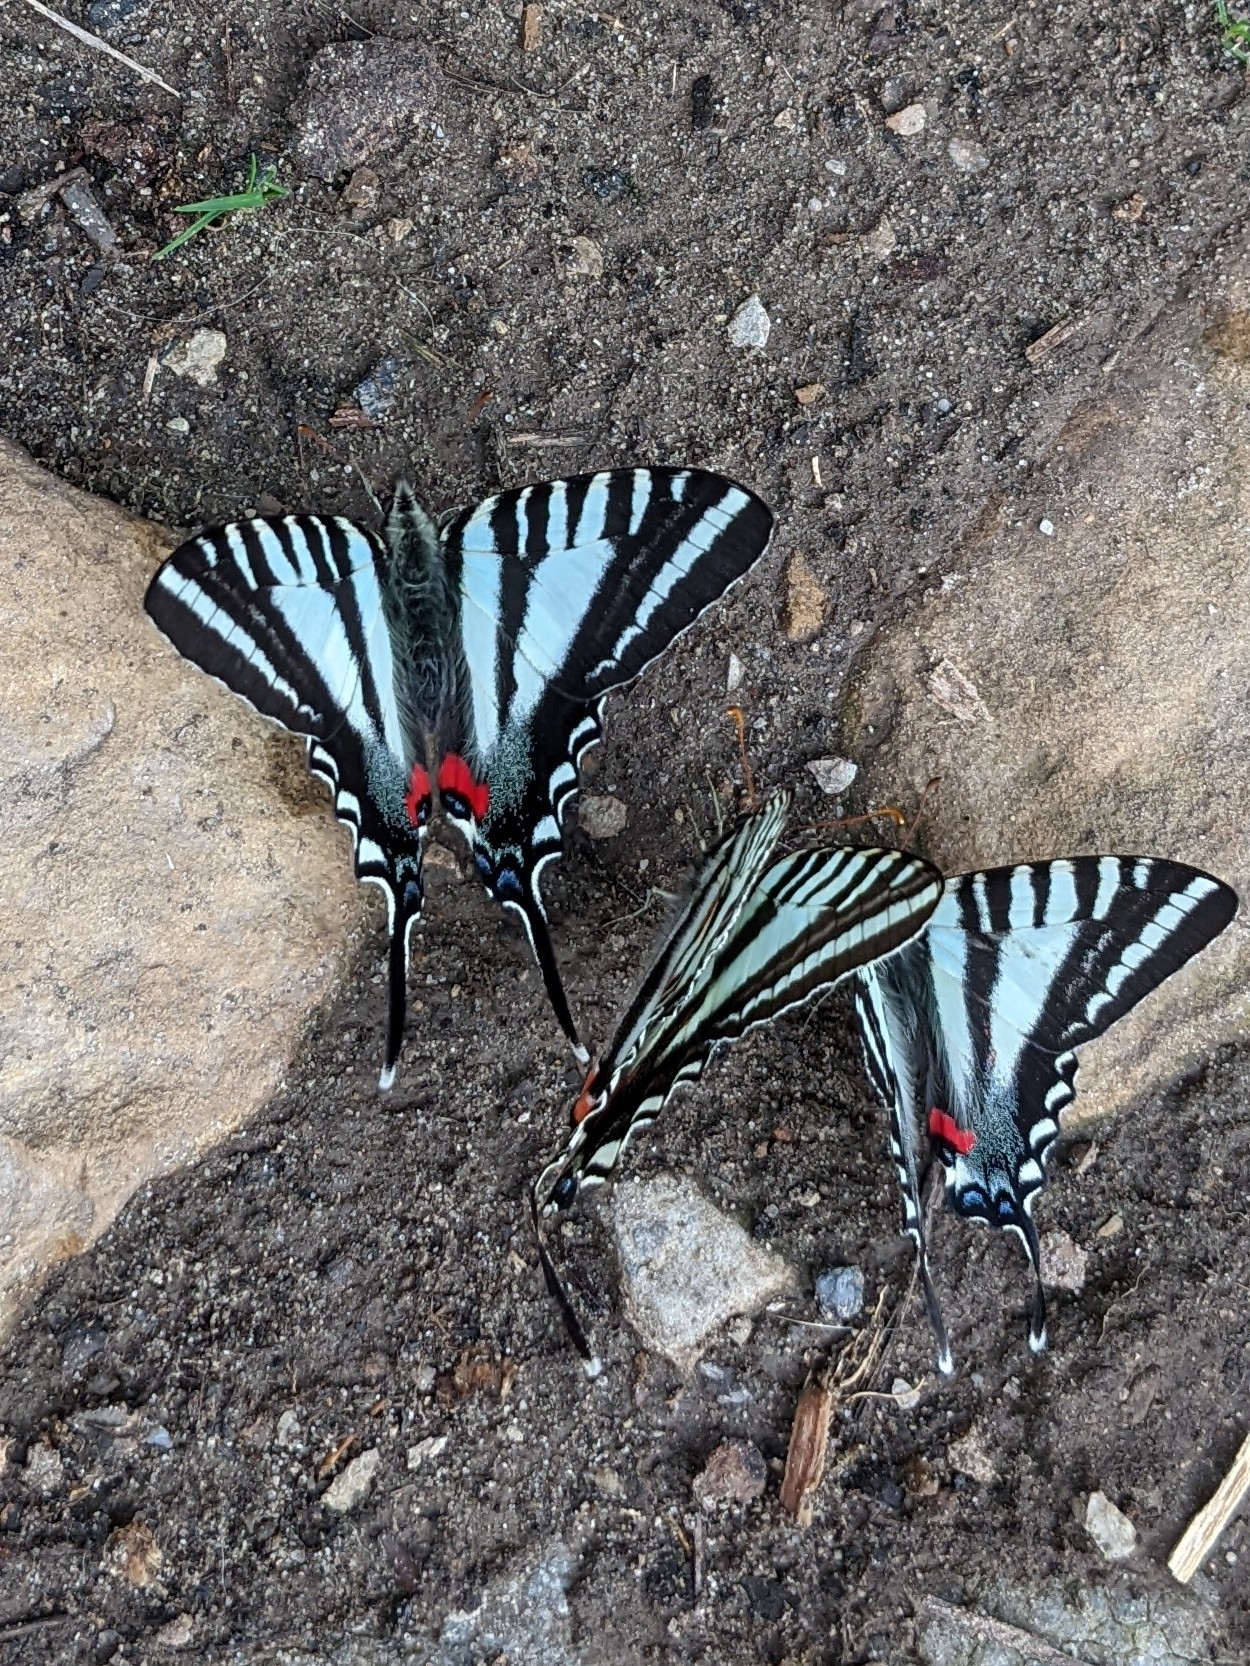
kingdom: Animalia
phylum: Arthropoda
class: Insecta
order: Lepidoptera
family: Papilionidae
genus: Protographium
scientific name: Protographium marcellus
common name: Zebra swallowtail
